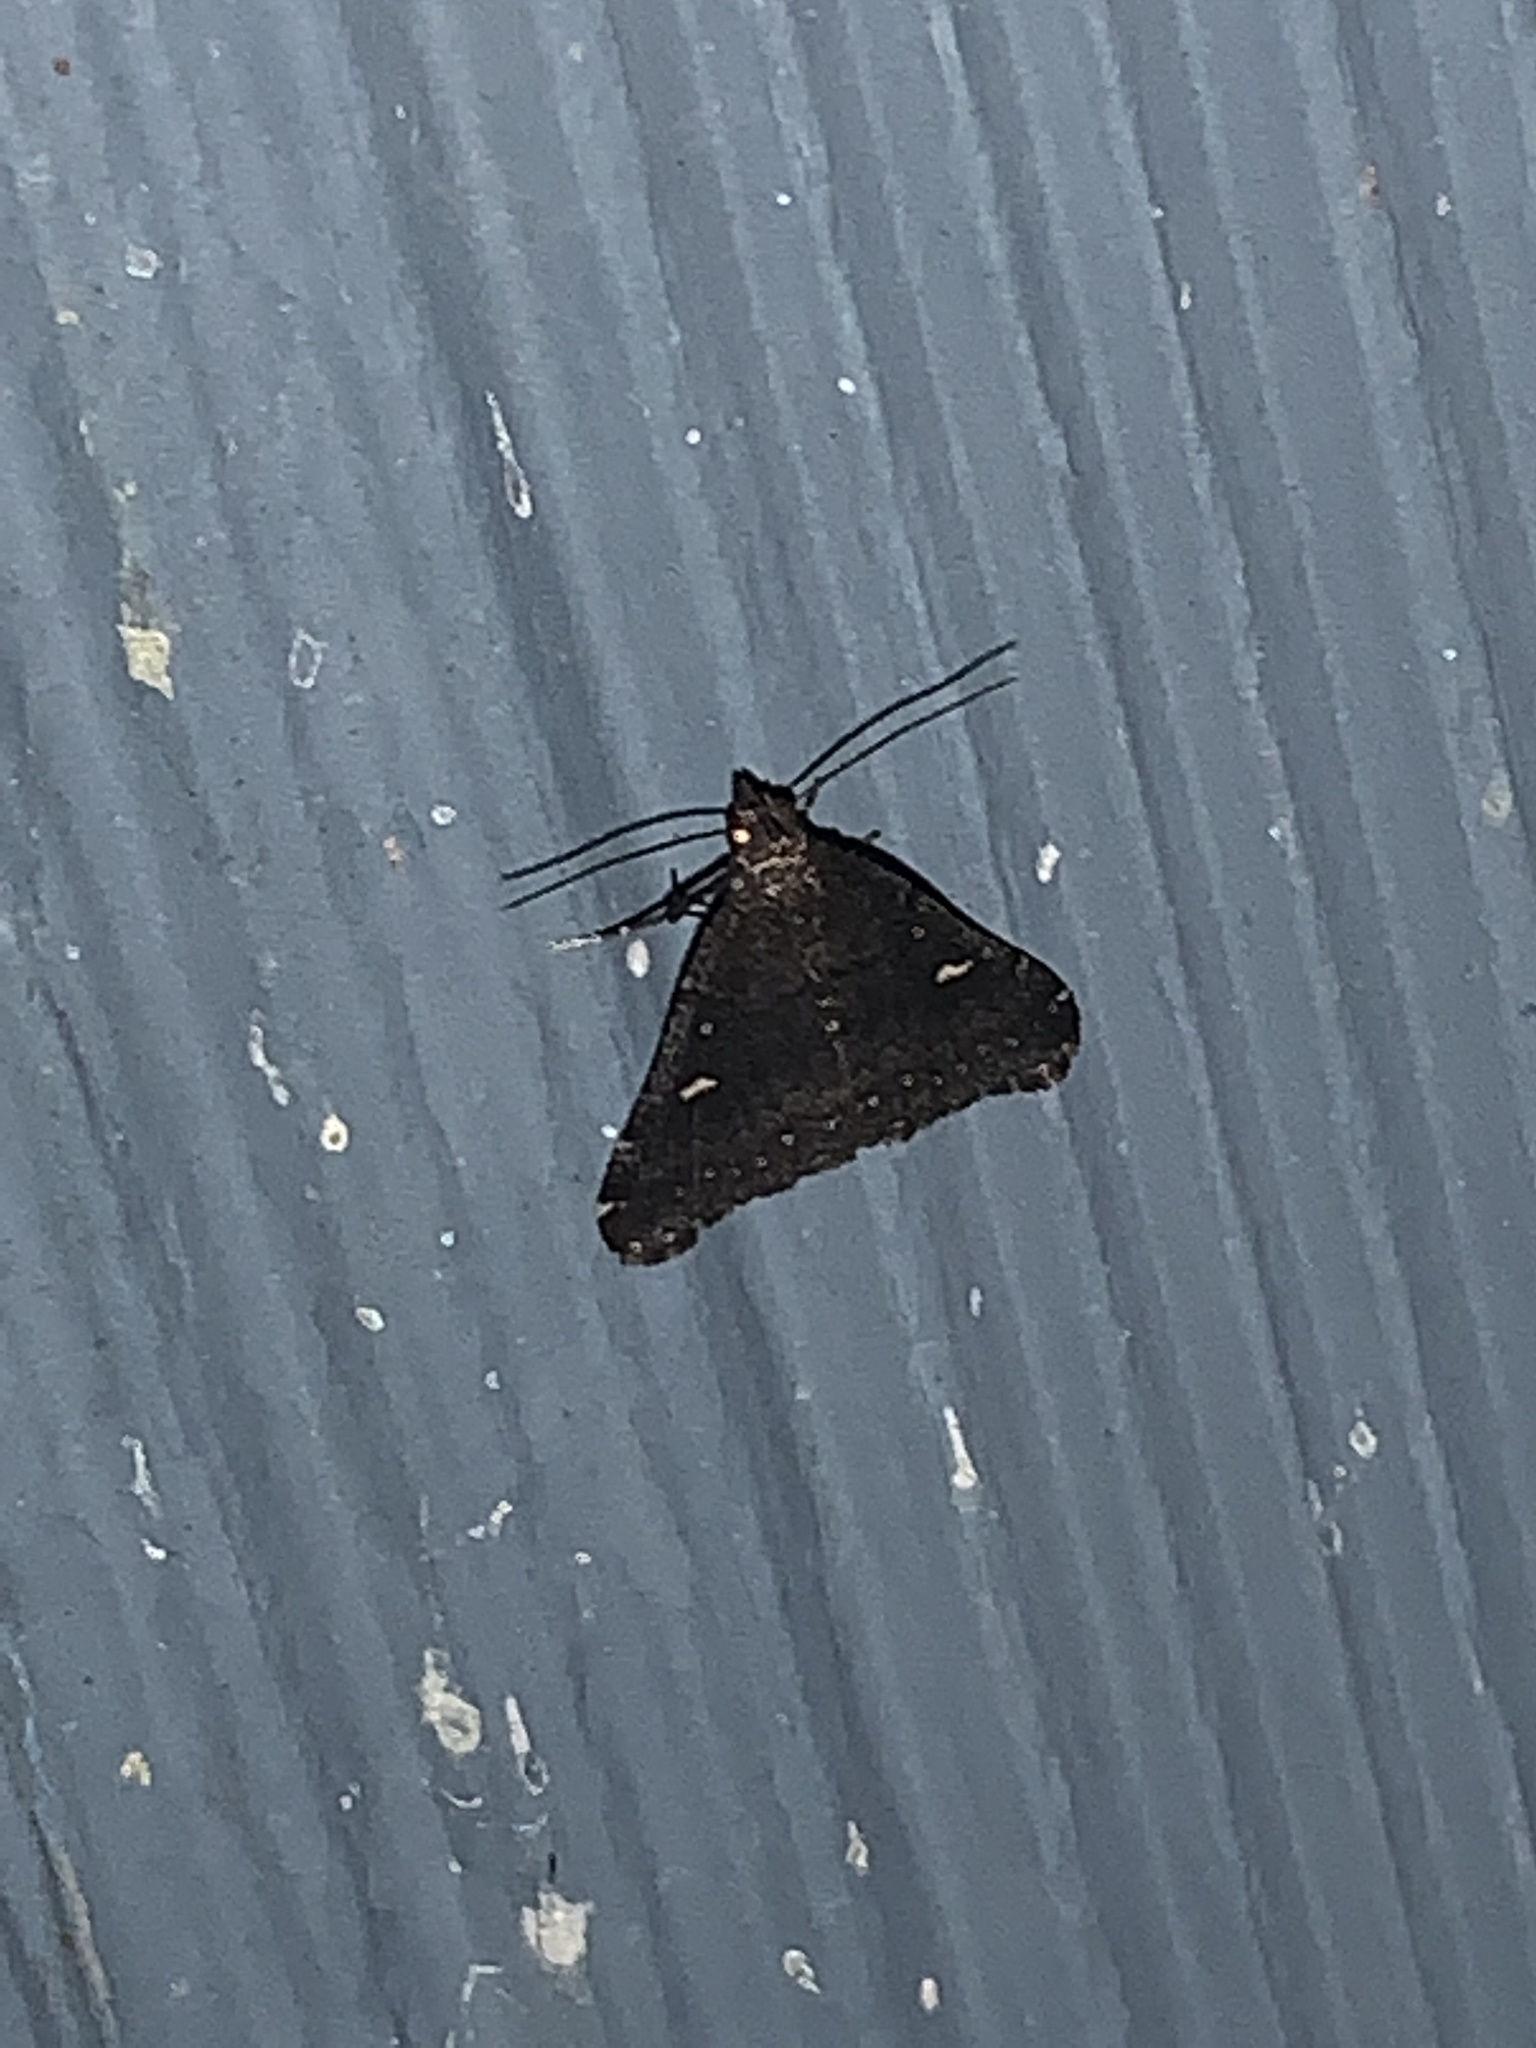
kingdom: Animalia
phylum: Arthropoda
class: Insecta
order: Lepidoptera
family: Erebidae
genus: Tetanolita
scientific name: Tetanolita mynesalis
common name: Smoky tetanolita moth
